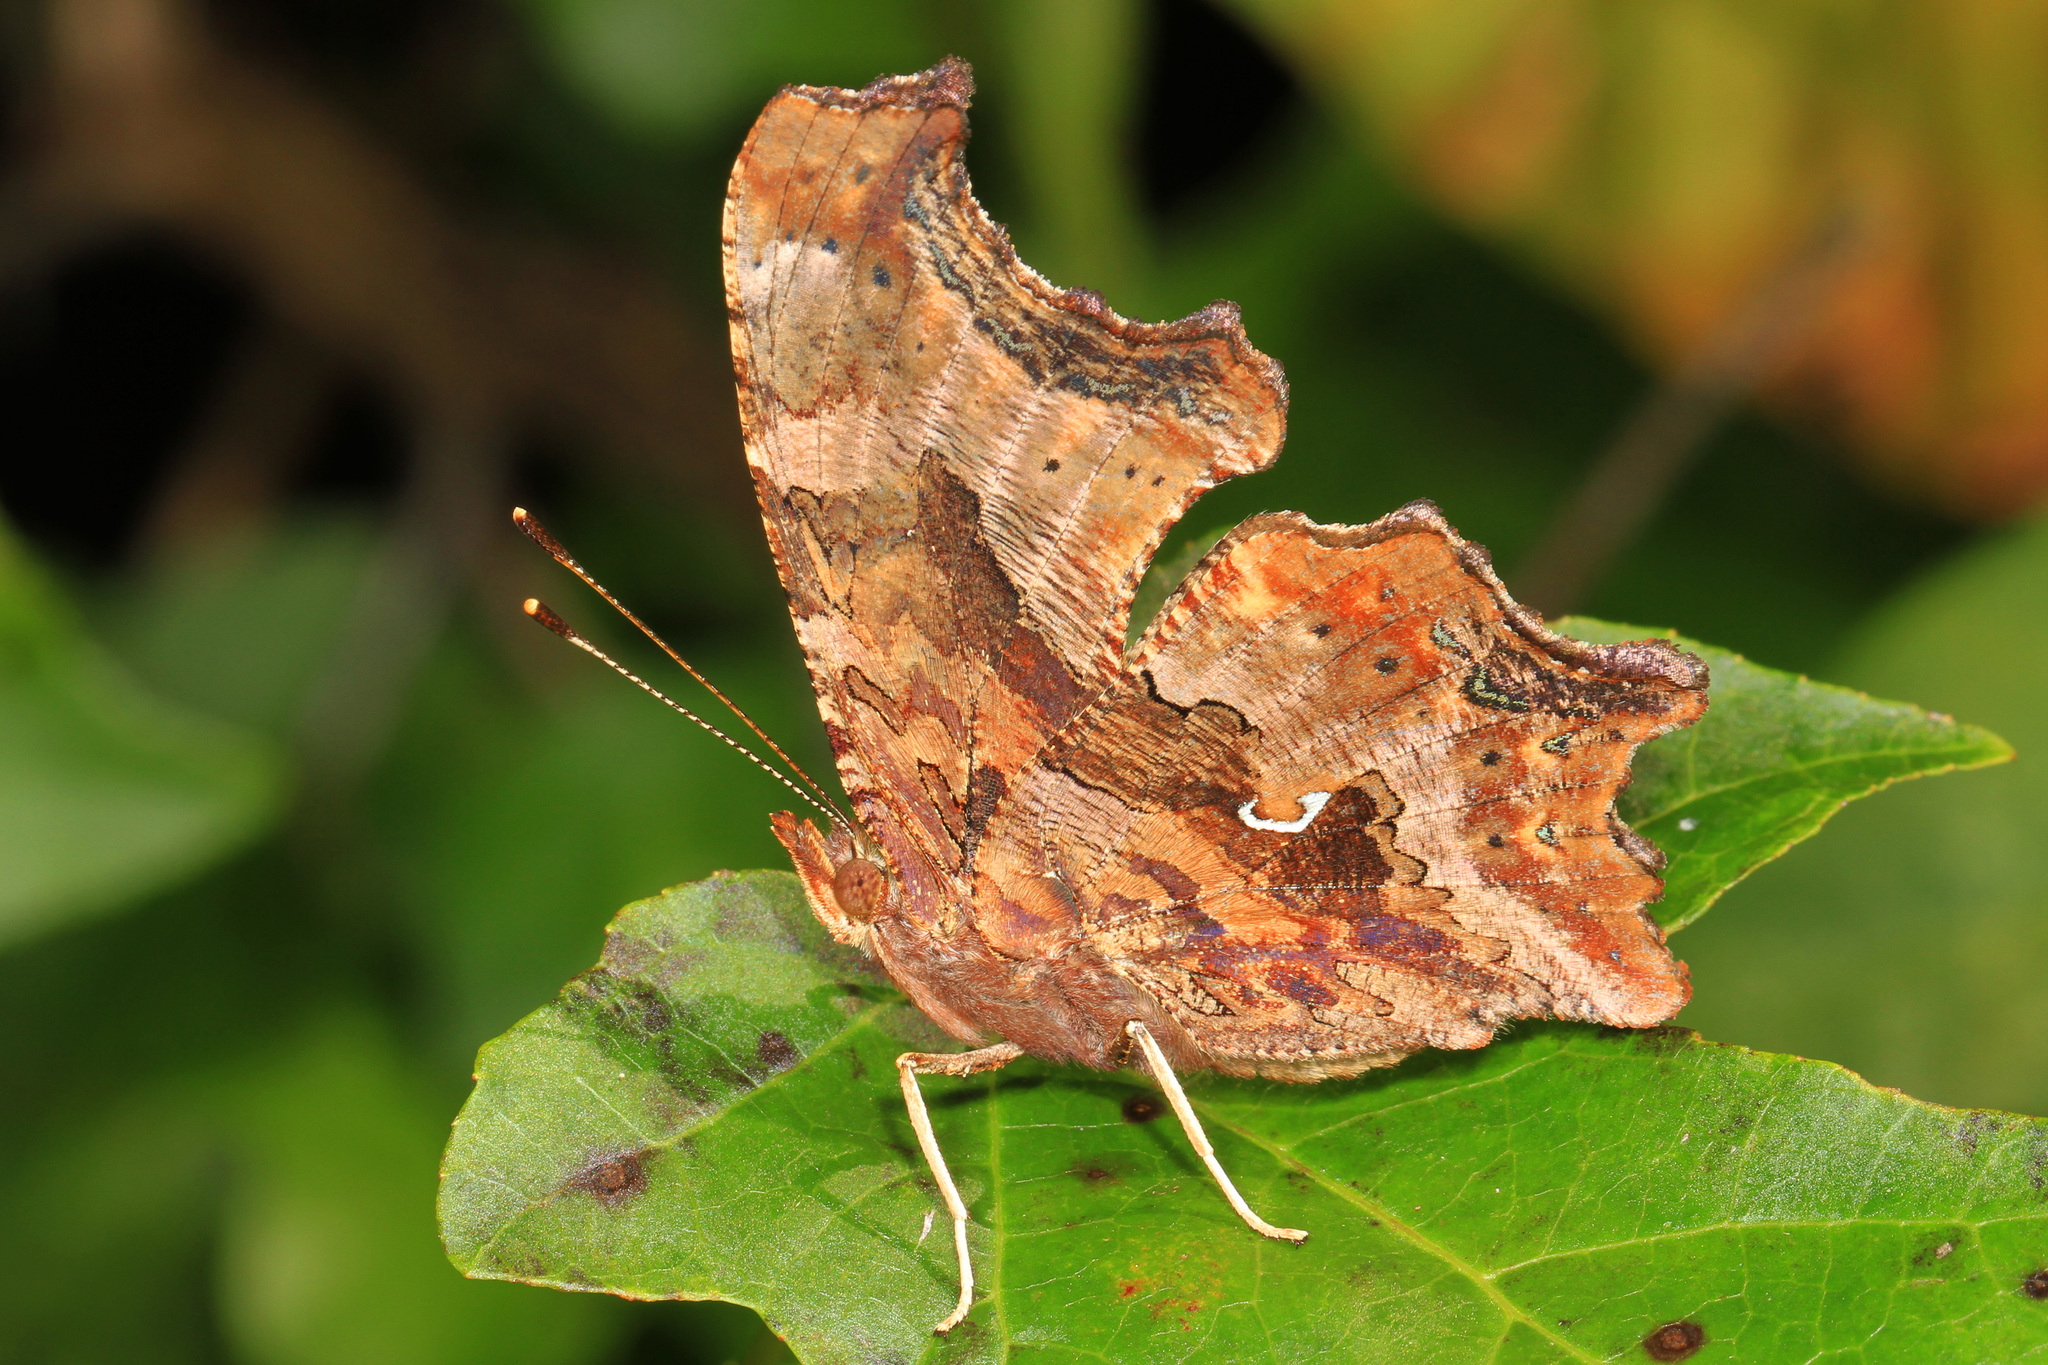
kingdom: Animalia
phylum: Arthropoda
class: Insecta
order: Lepidoptera
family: Nymphalidae
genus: Polygonia
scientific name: Polygonia comma
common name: Eastern comma
